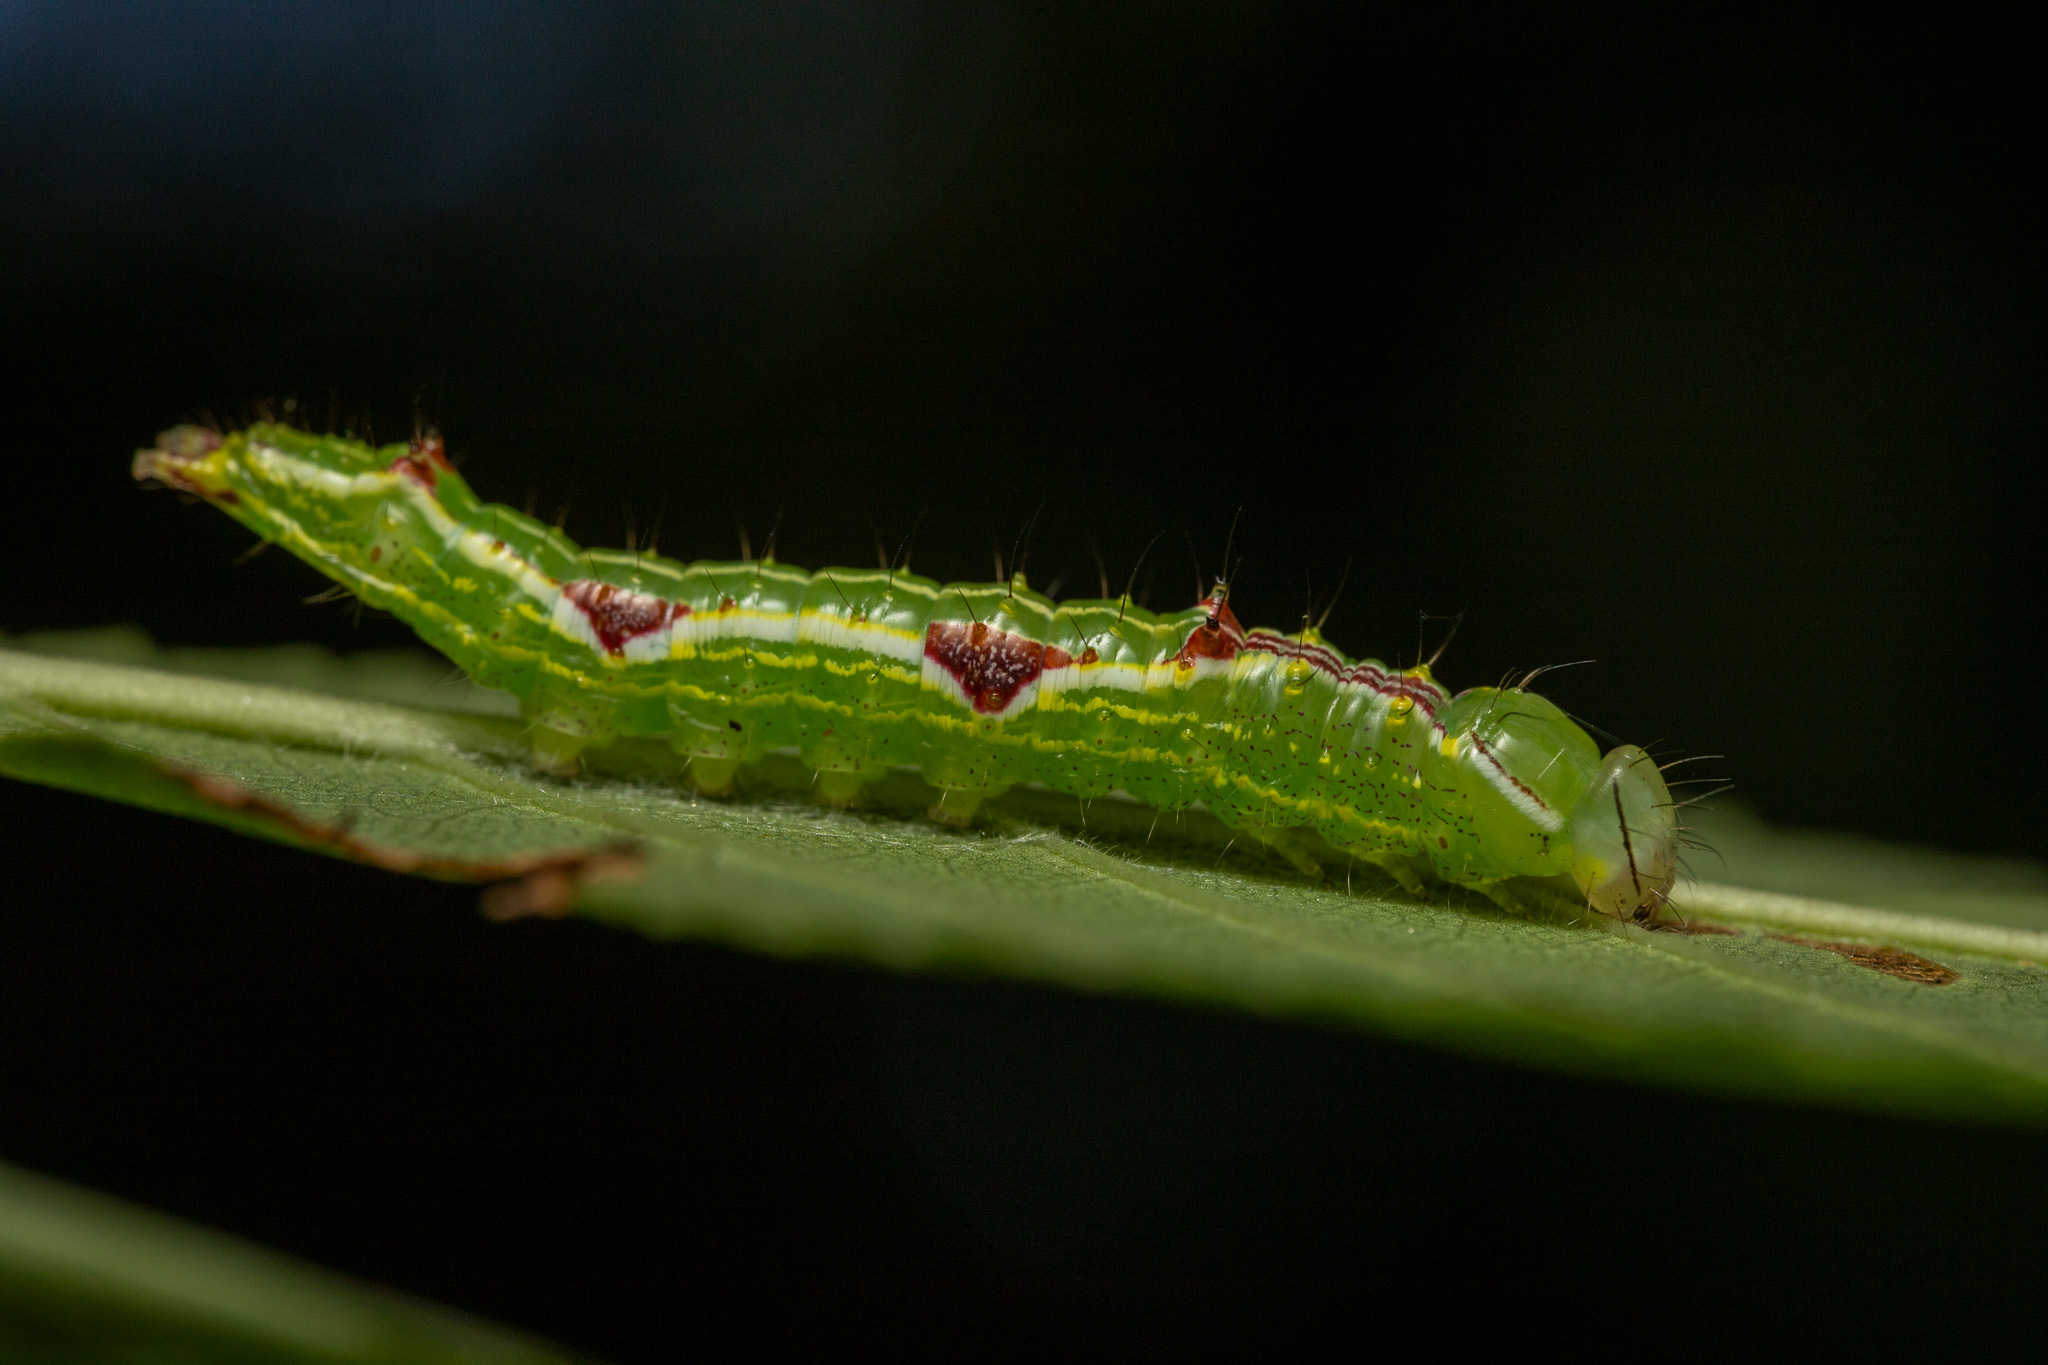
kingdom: Animalia
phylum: Arthropoda
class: Insecta
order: Lepidoptera
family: Notodontidae
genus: Lochmaeus
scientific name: Lochmaeus bilineata
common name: Double-lined prominent
